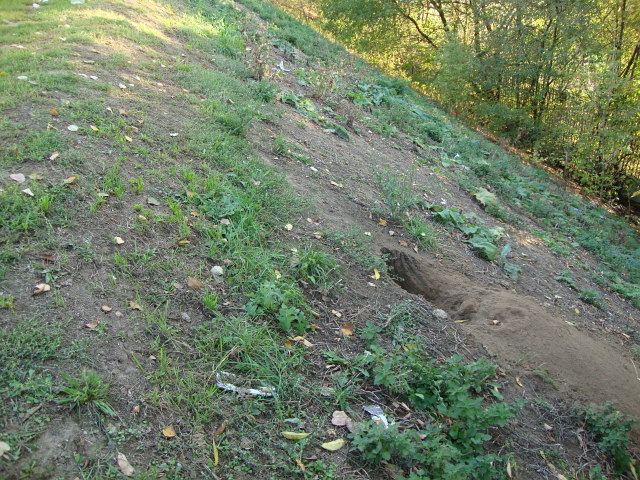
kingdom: Animalia
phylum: Chordata
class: Mammalia
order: Carnivora
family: Canidae
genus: Canis
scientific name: Canis lupus
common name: Gray wolf
